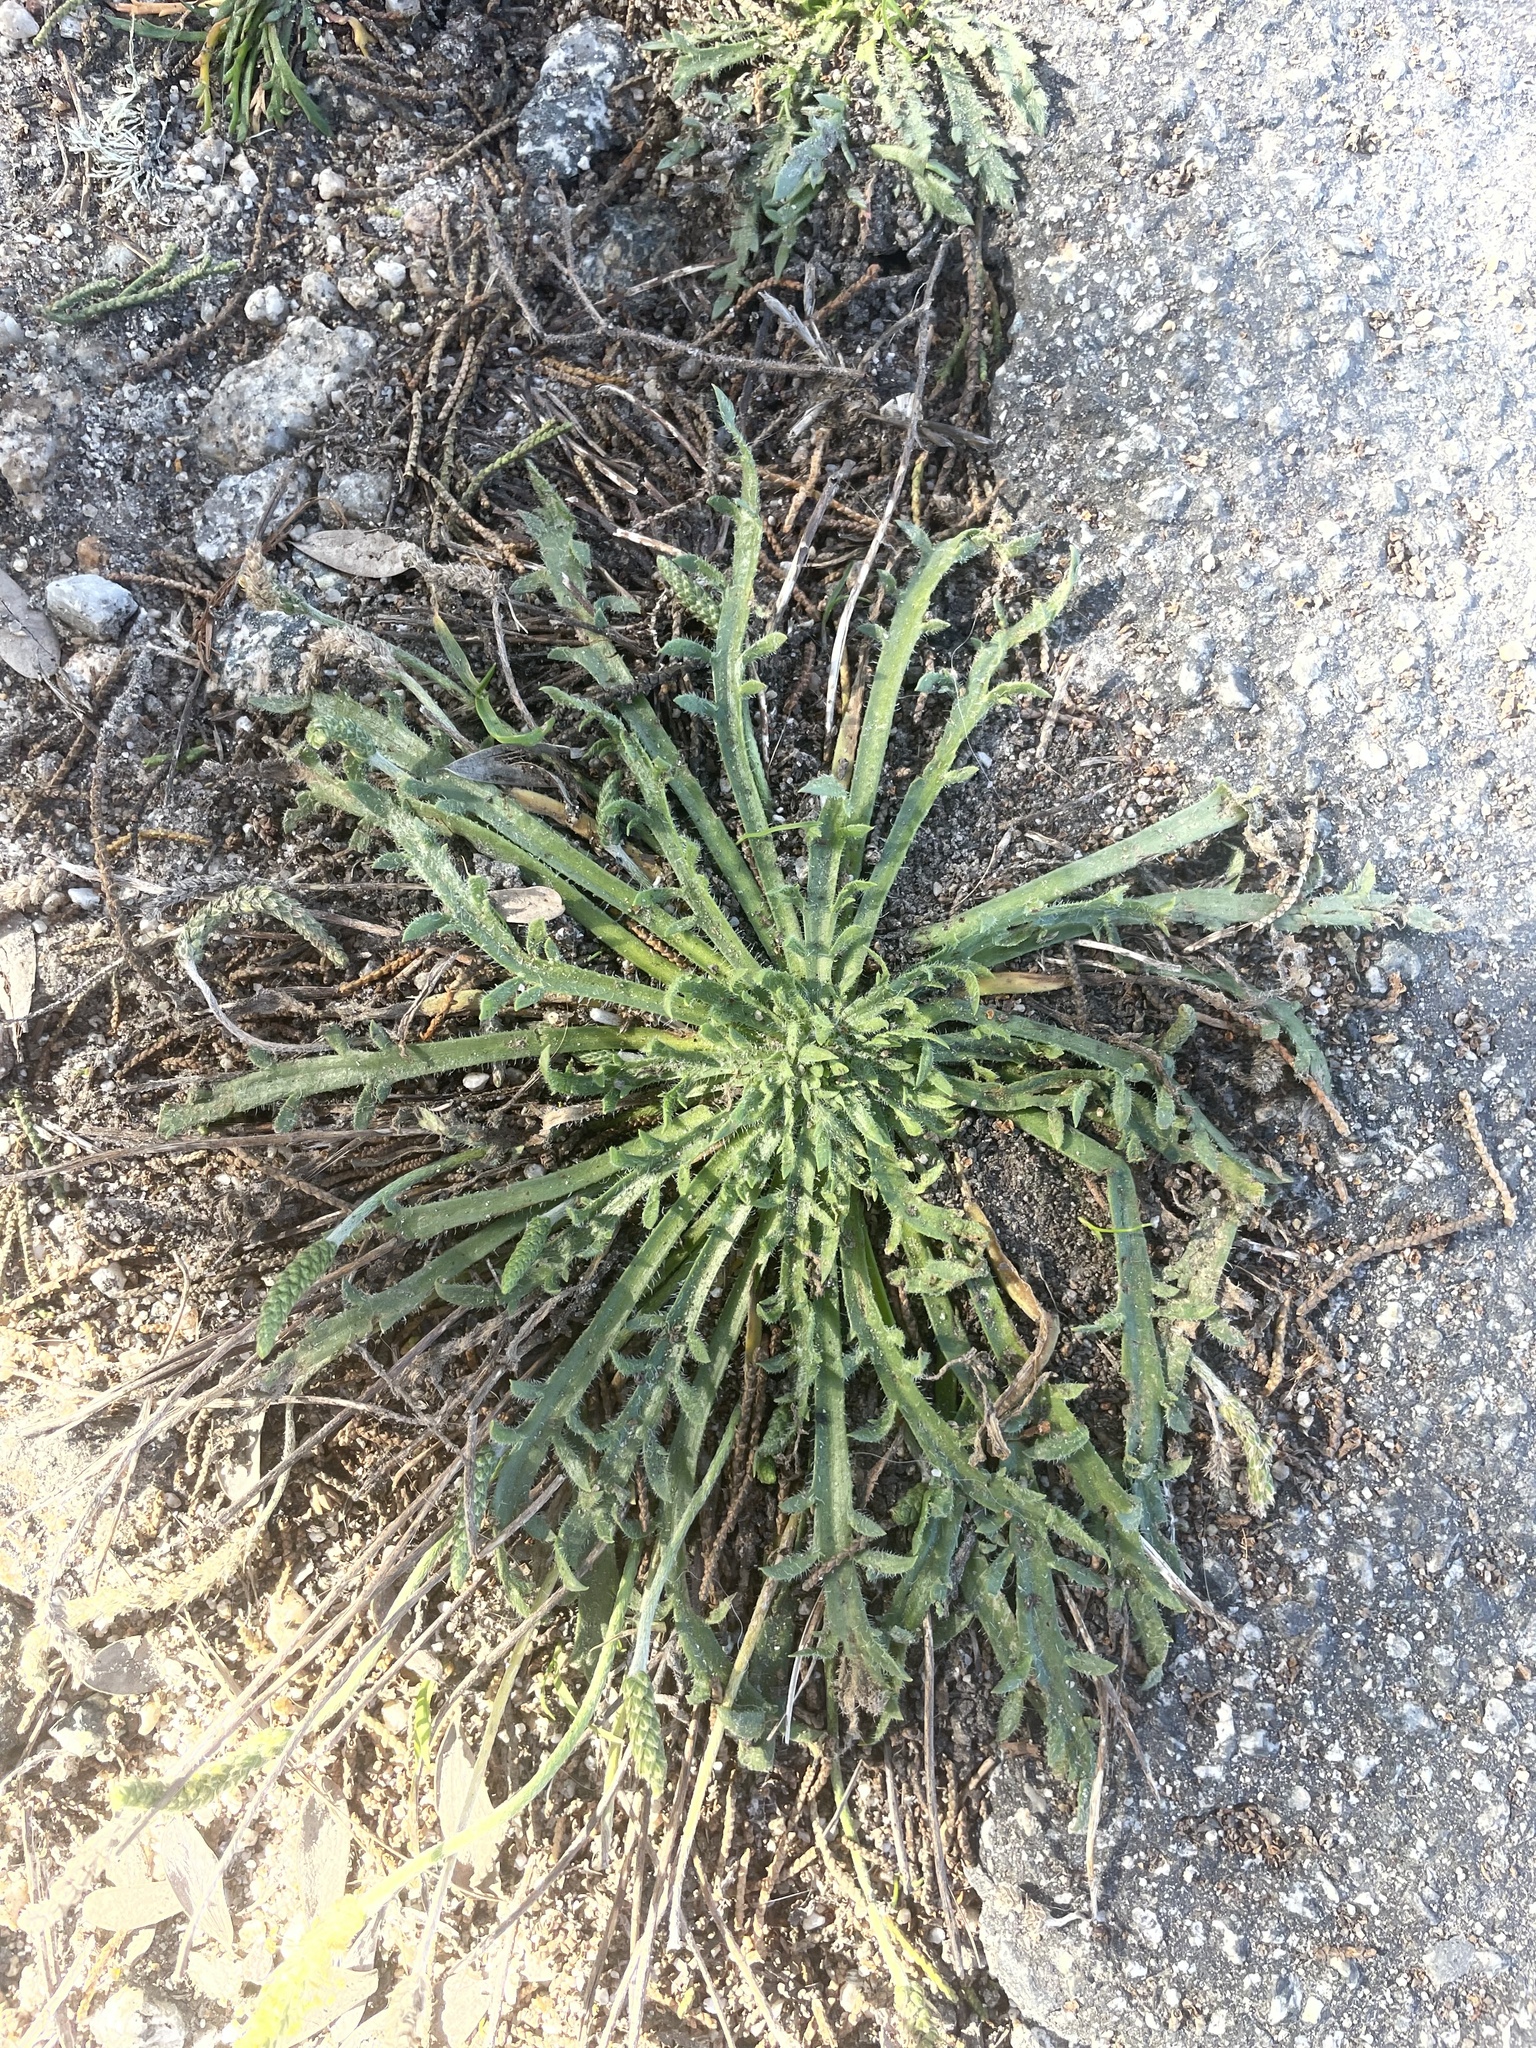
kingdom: Plantae
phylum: Tracheophyta
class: Magnoliopsida
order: Lamiales
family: Plantaginaceae
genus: Plantago
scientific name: Plantago coronopus
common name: Buck's-horn plantain
